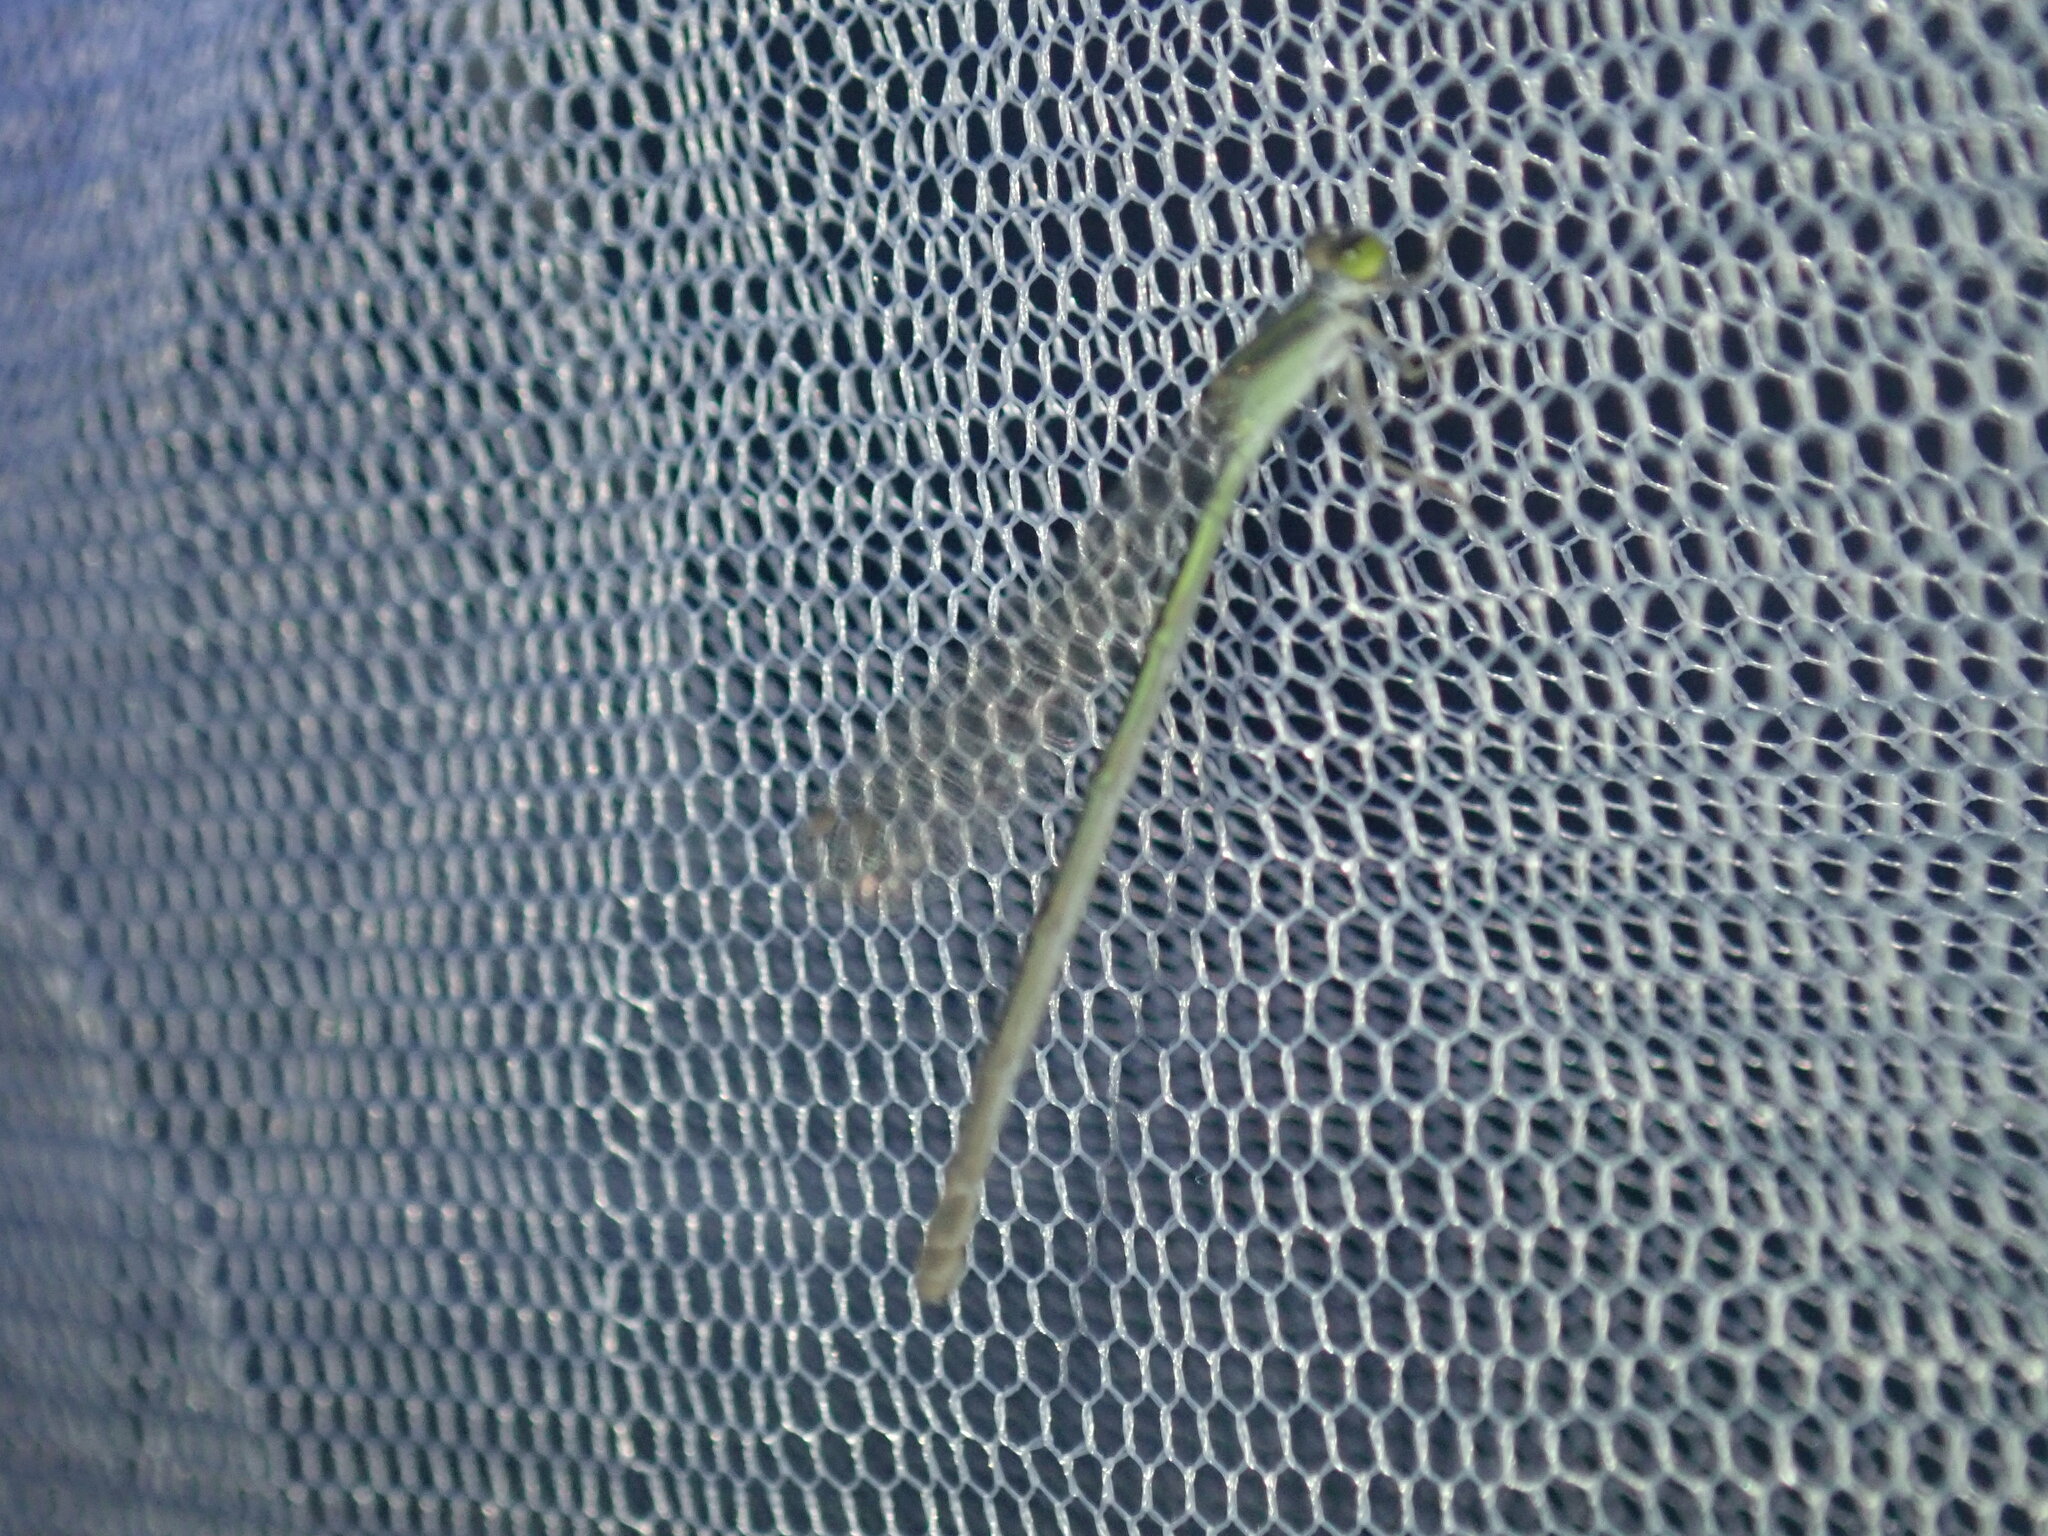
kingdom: Animalia
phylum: Arthropoda
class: Insecta
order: Odonata
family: Coenagrionidae
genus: Ischnura
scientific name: Ischnura aurora
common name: Gossamer damselfly
